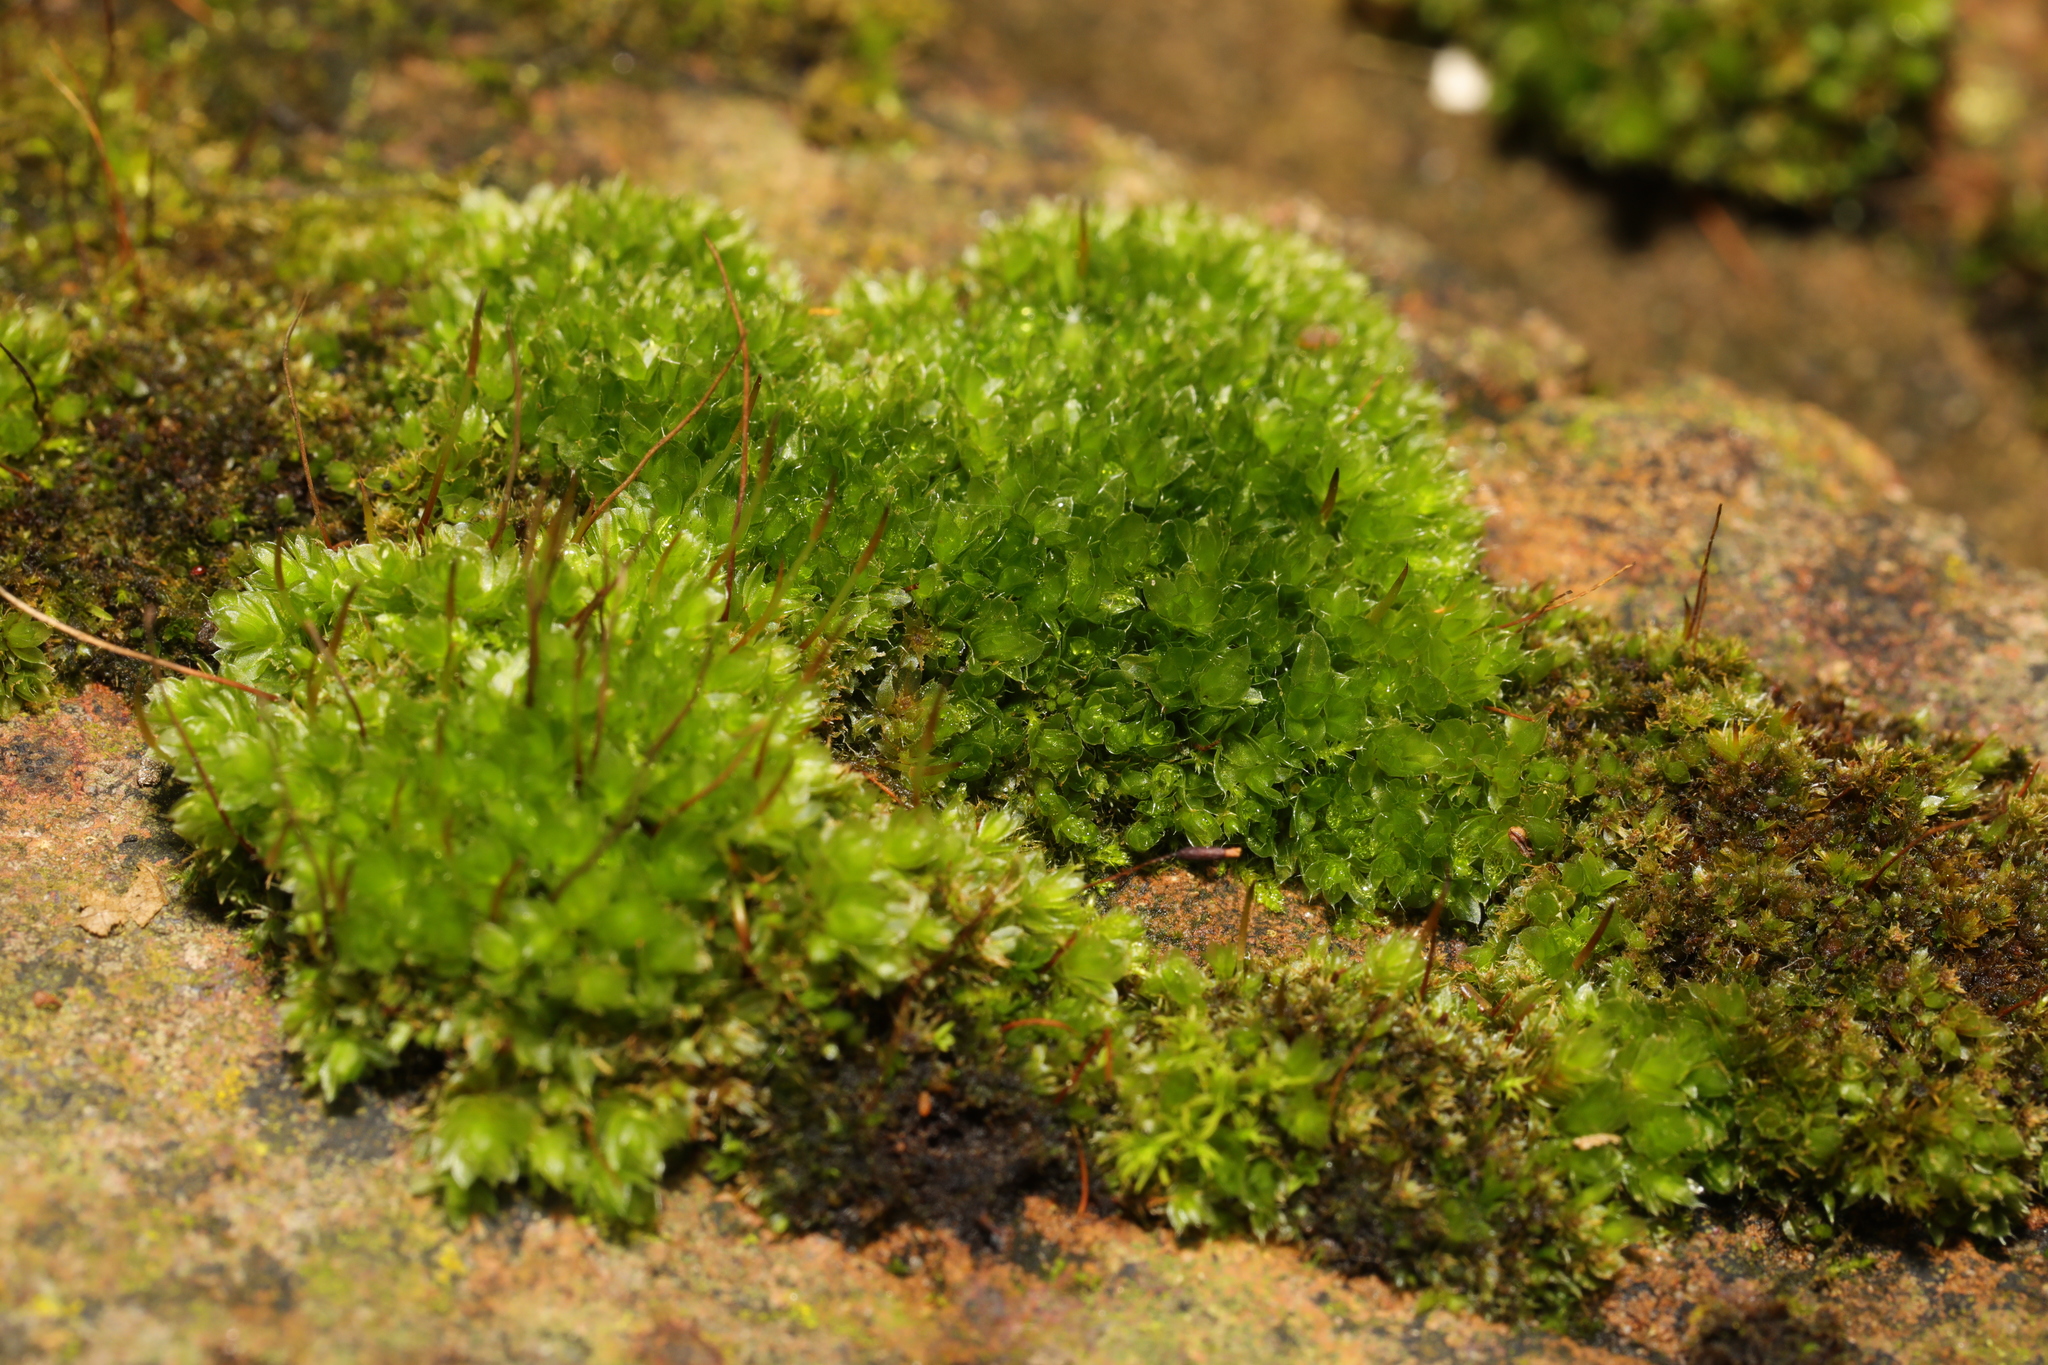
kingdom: Plantae
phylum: Bryophyta
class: Bryopsida
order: Bryales
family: Bryaceae
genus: Rosulabryum
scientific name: Rosulabryum capillare
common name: Capillary thread-moss
